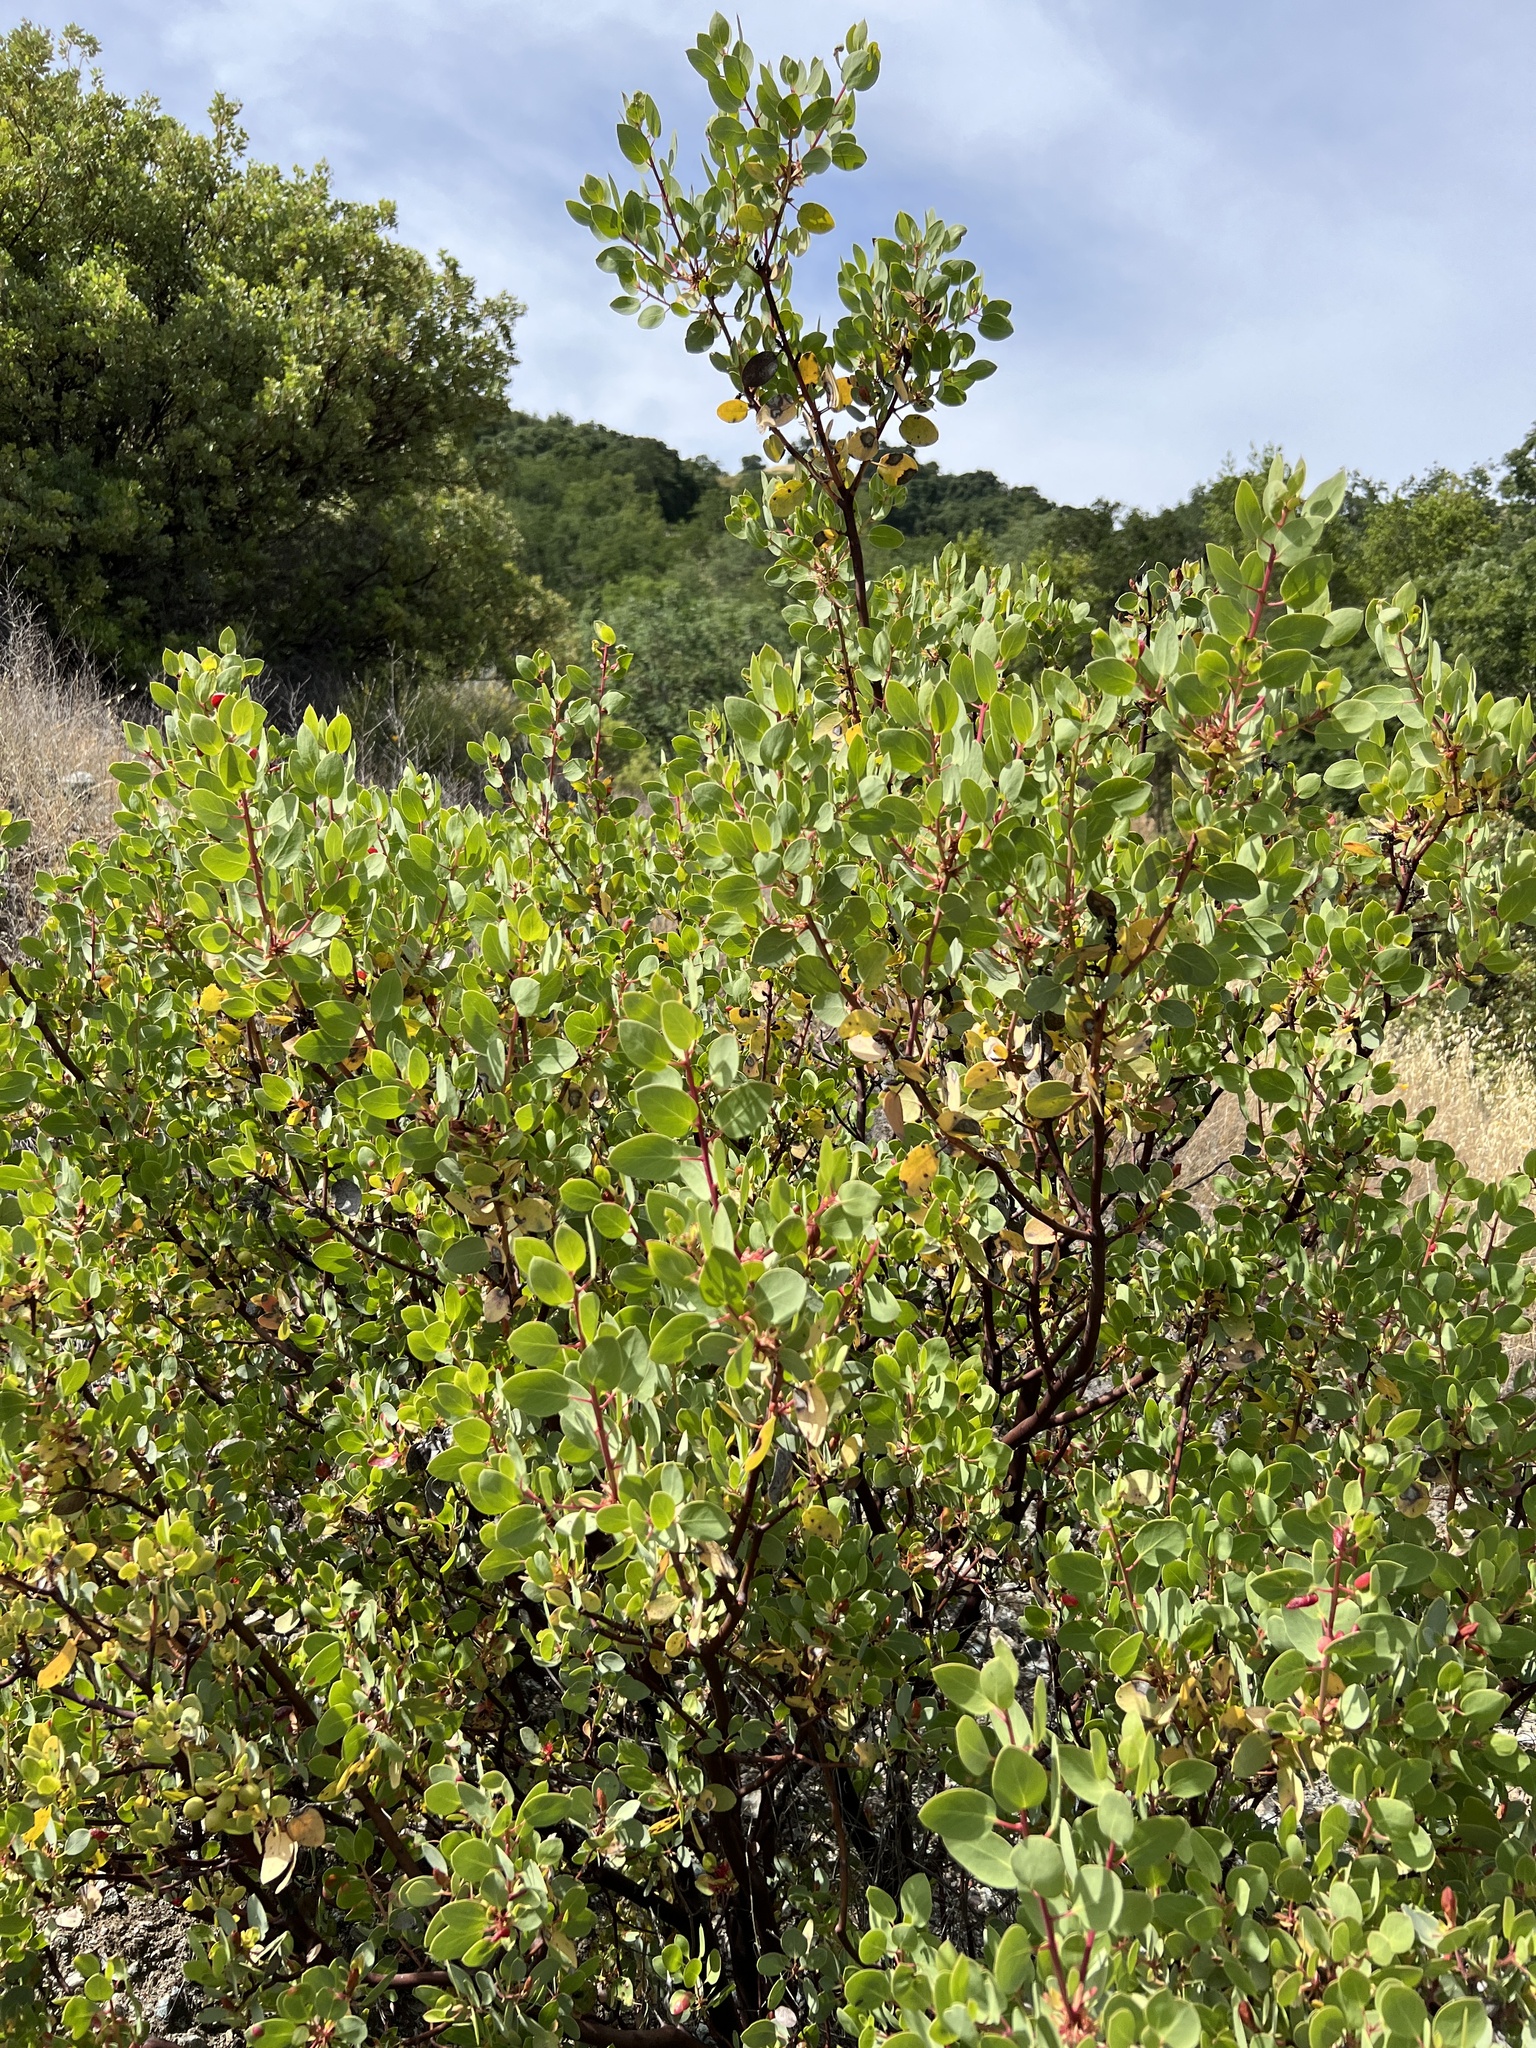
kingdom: Plantae
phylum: Tracheophyta
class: Magnoliopsida
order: Ericales
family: Ericaceae
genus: Arctostaphylos
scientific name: Arctostaphylos glauca
